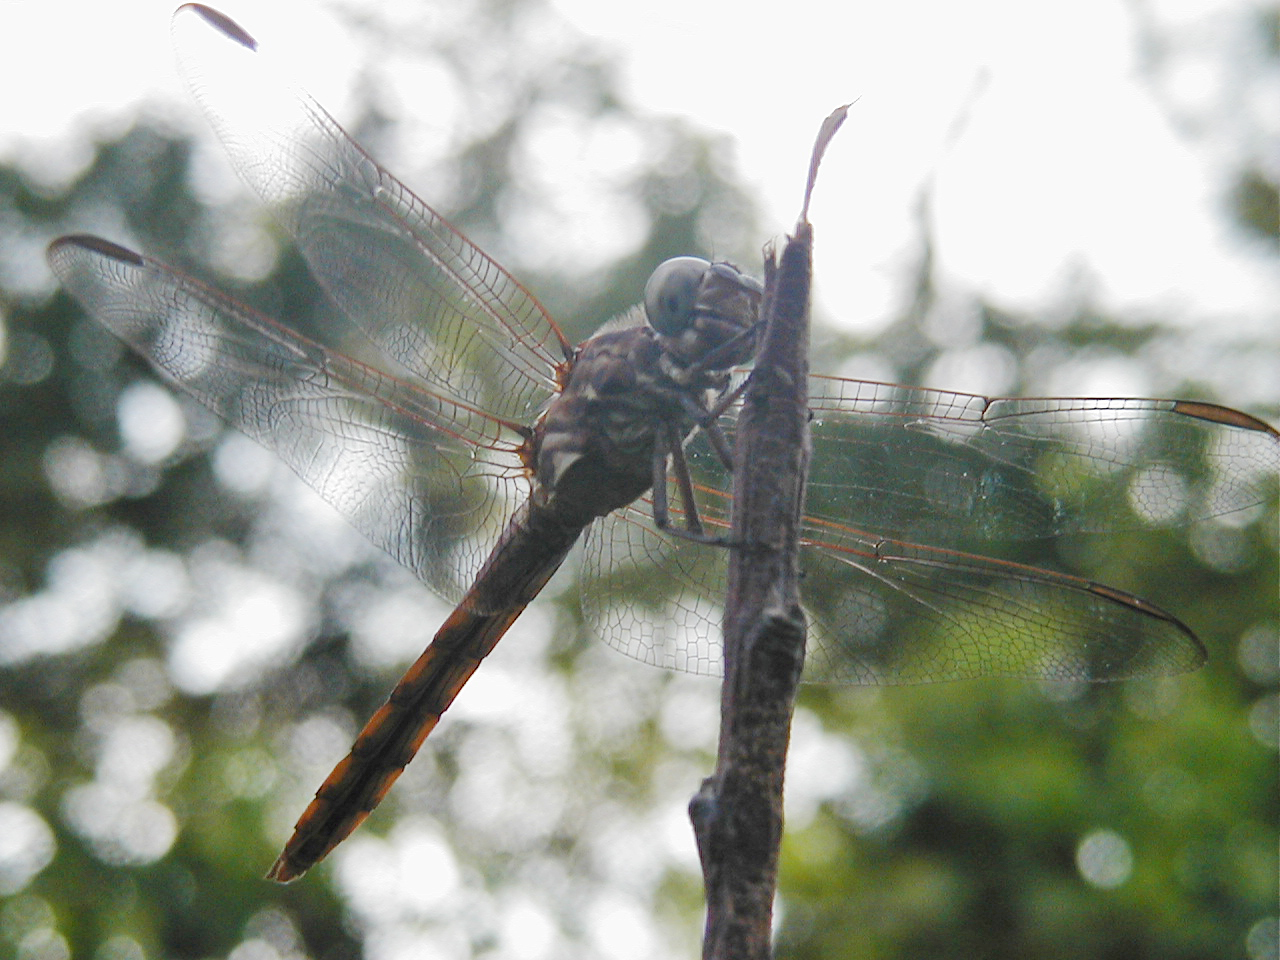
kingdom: Animalia
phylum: Arthropoda
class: Insecta
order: Odonata
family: Libellulidae
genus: Orthemis
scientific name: Orthemis ferruginea
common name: Roseate skimmer
